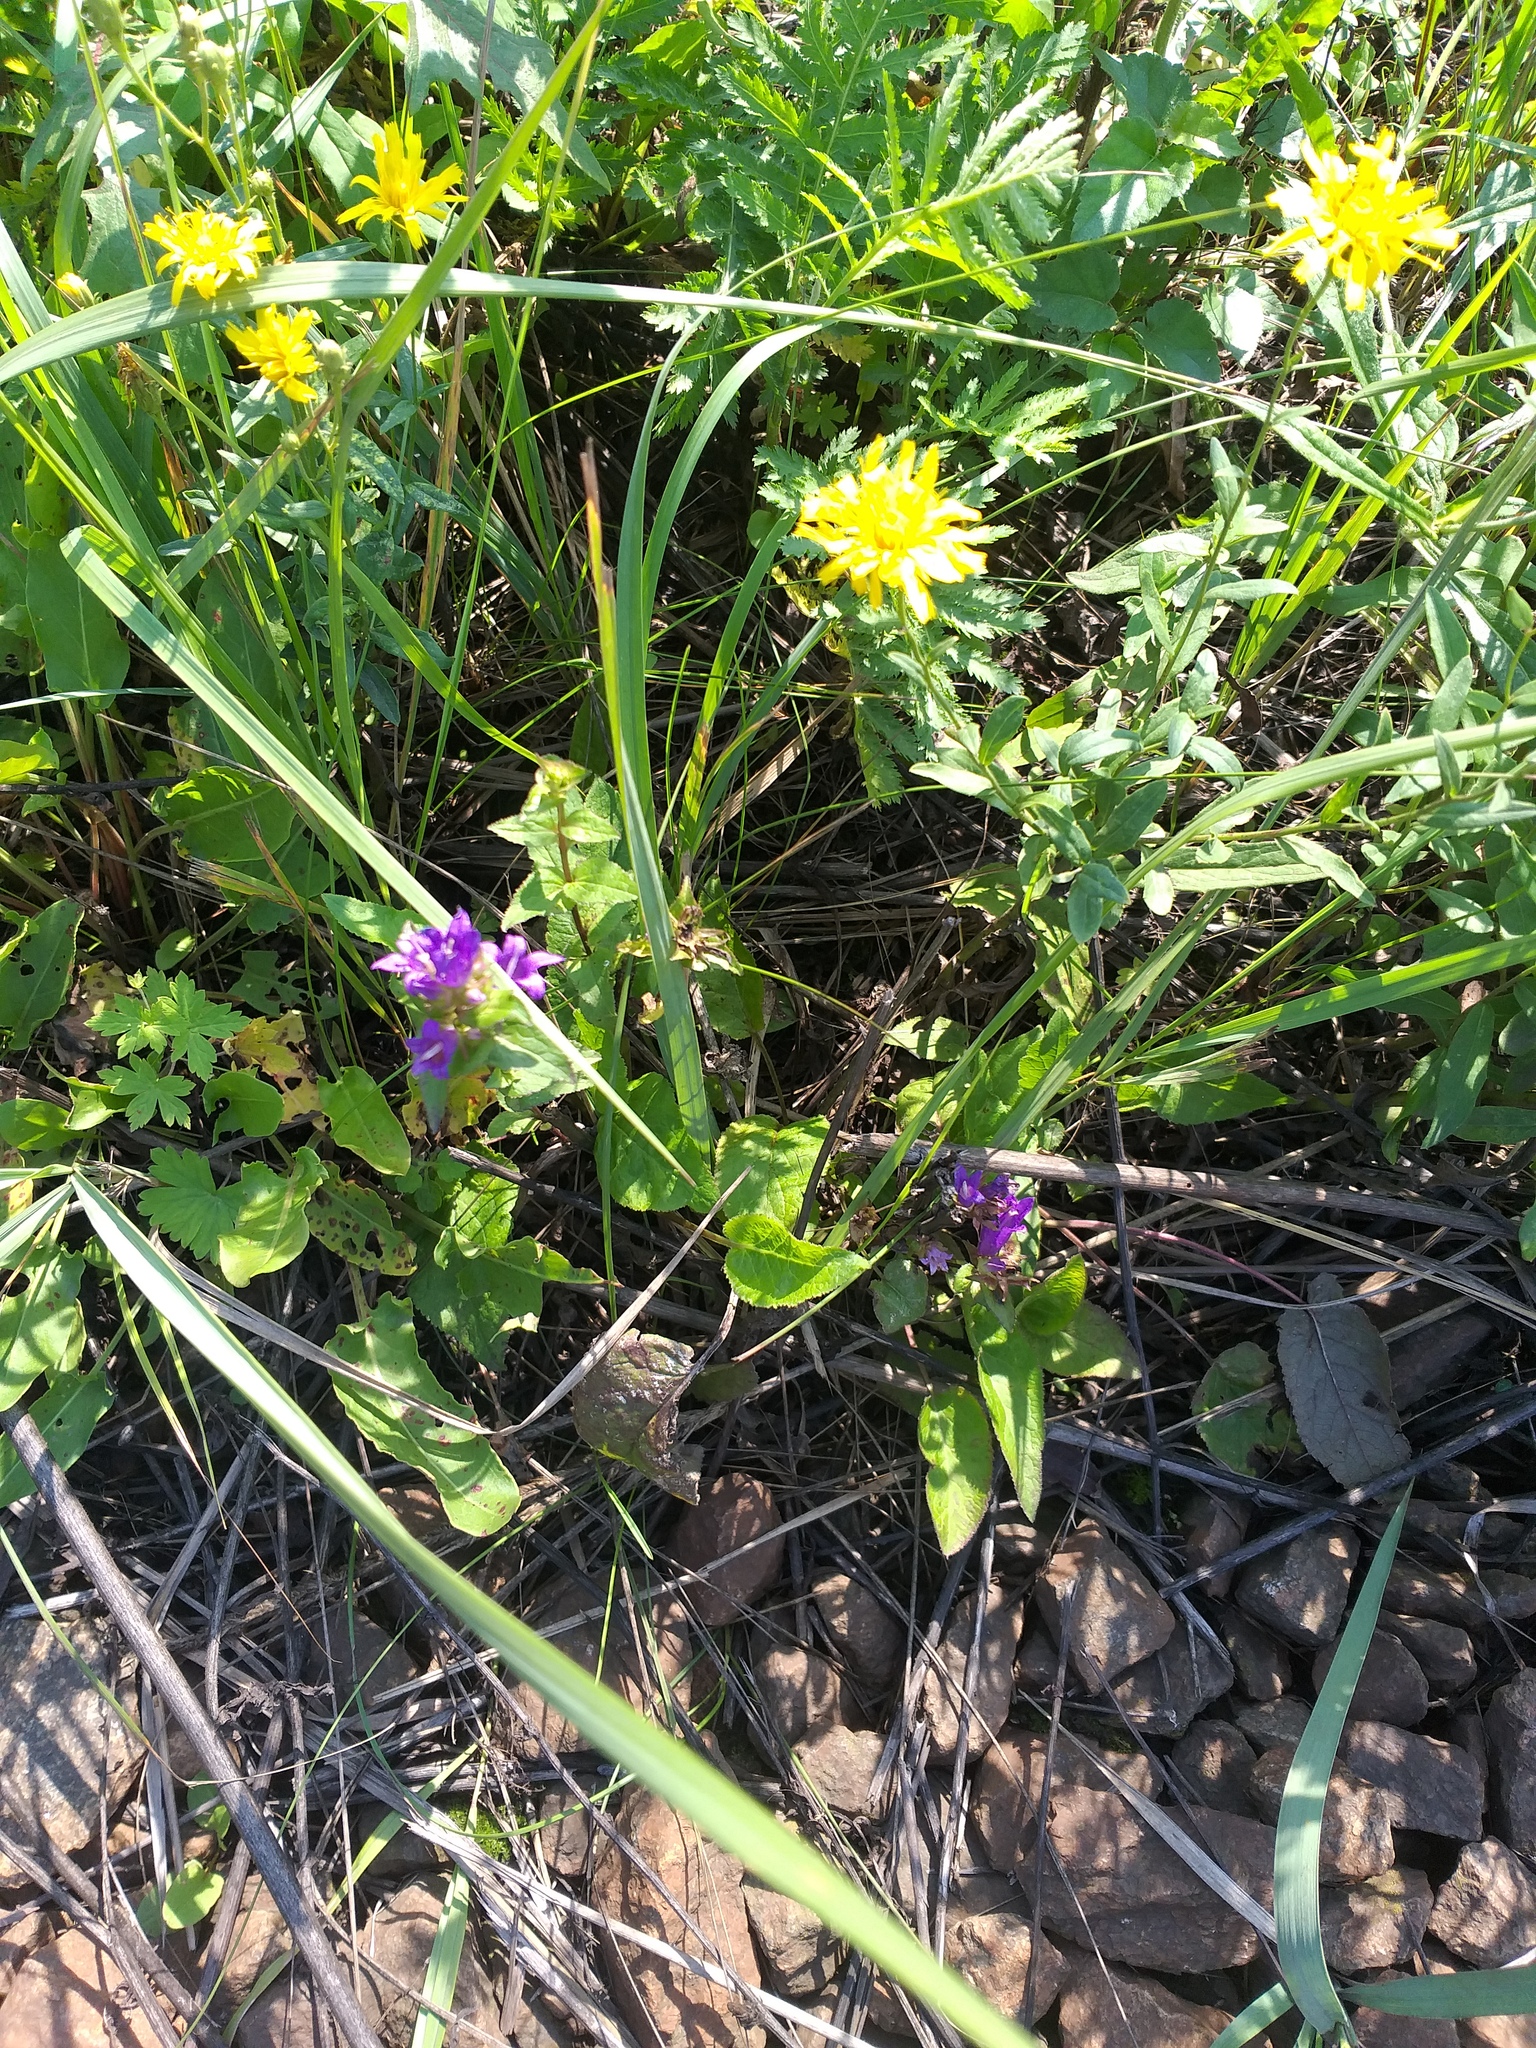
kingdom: Plantae
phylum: Tracheophyta
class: Magnoliopsida
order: Asterales
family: Campanulaceae
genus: Campanula
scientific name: Campanula glomerata
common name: Clustered bellflower
